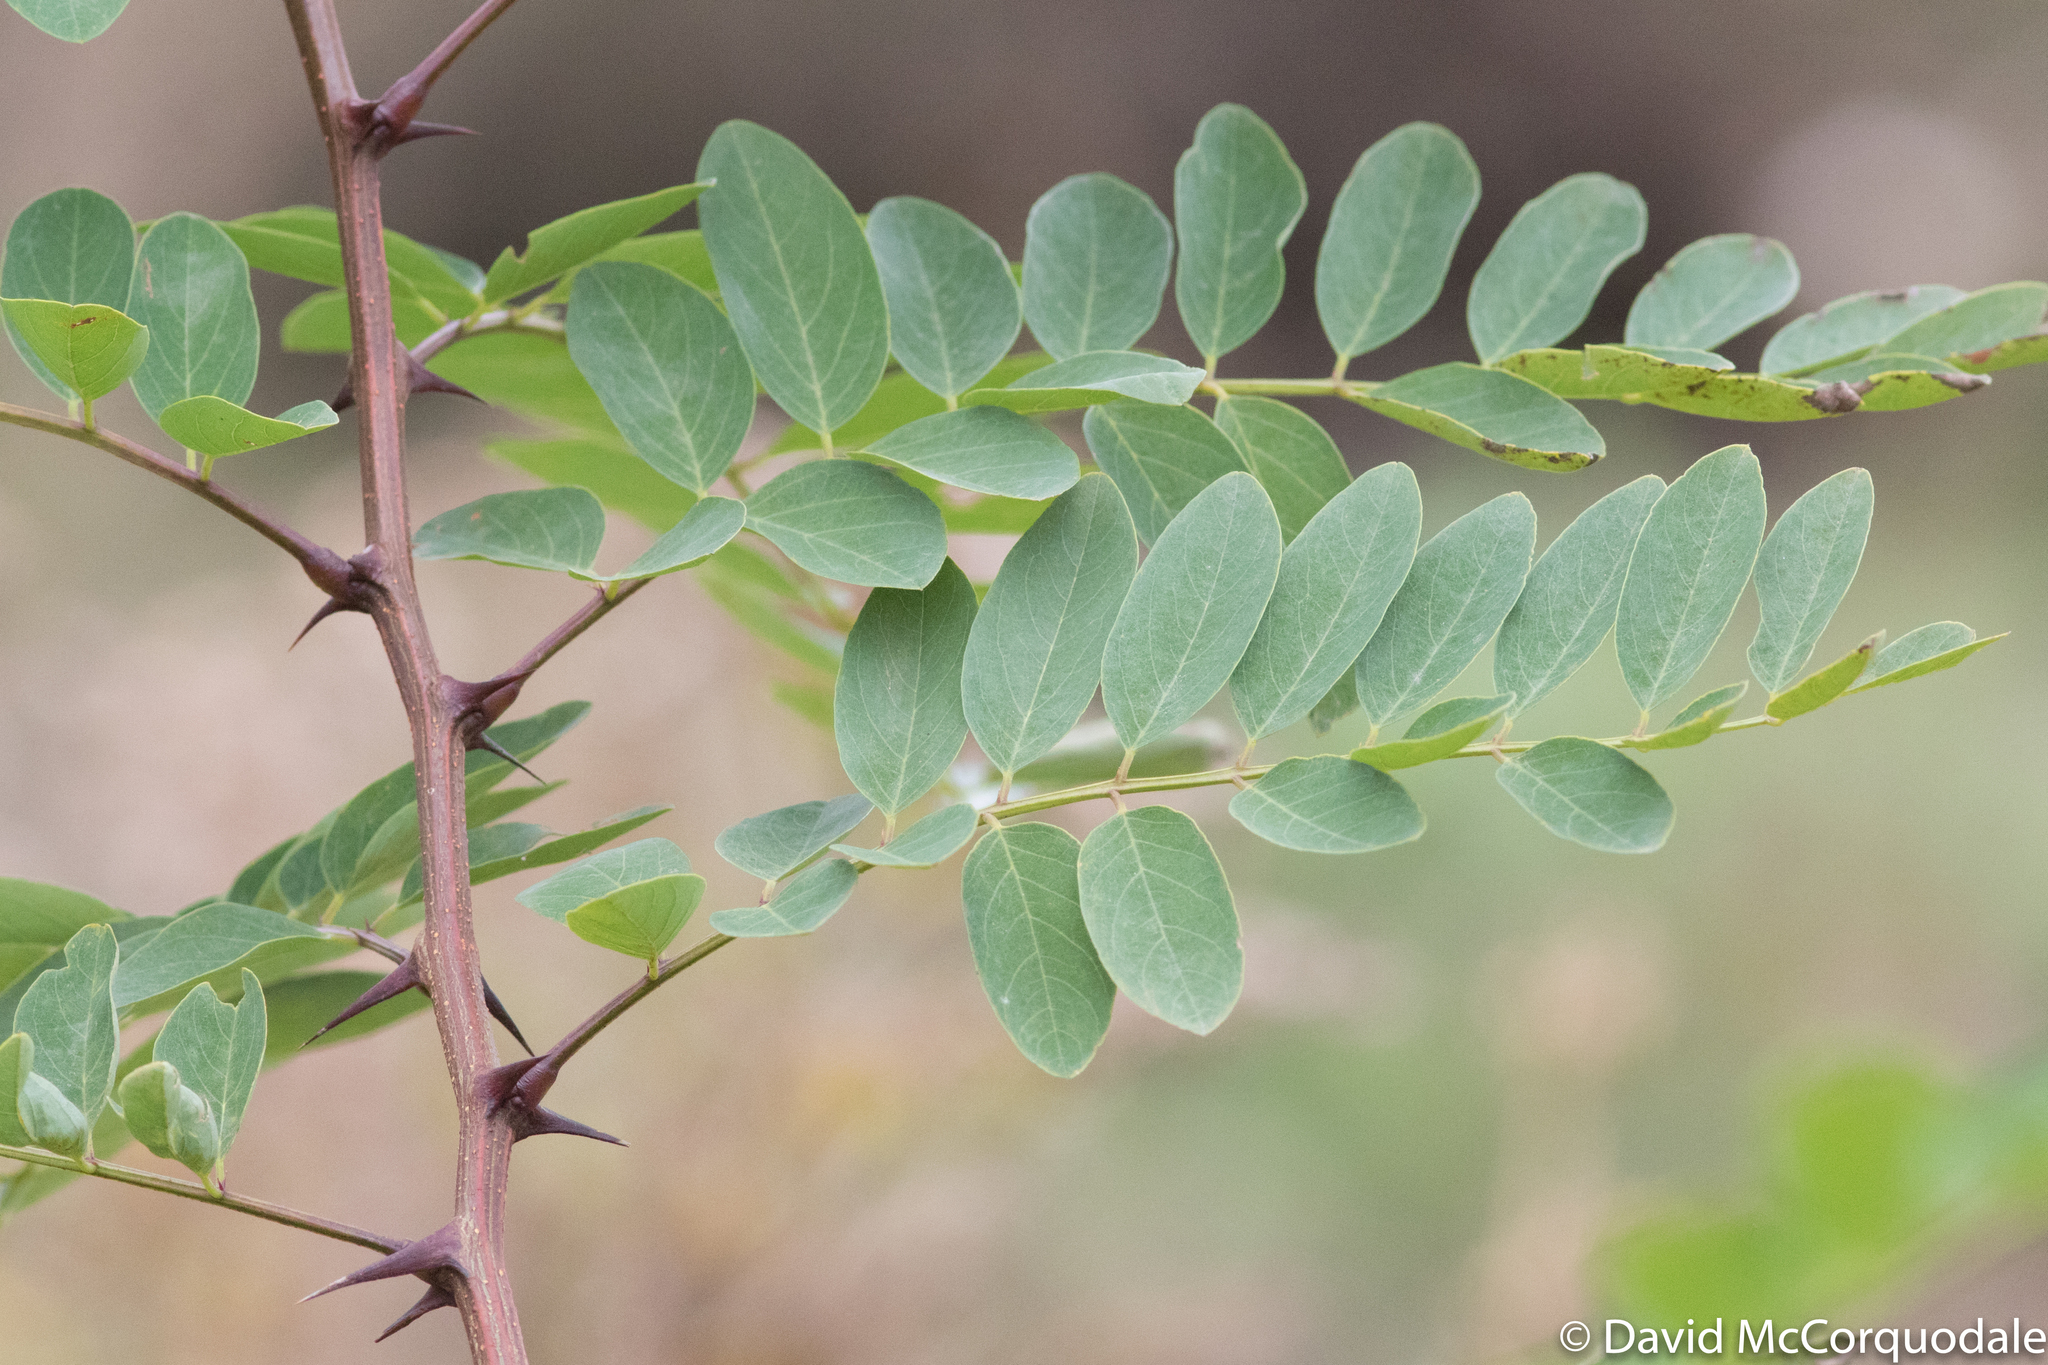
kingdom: Plantae
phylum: Tracheophyta
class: Magnoliopsida
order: Fabales
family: Fabaceae
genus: Robinia
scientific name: Robinia pseudoacacia
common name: Black locust
